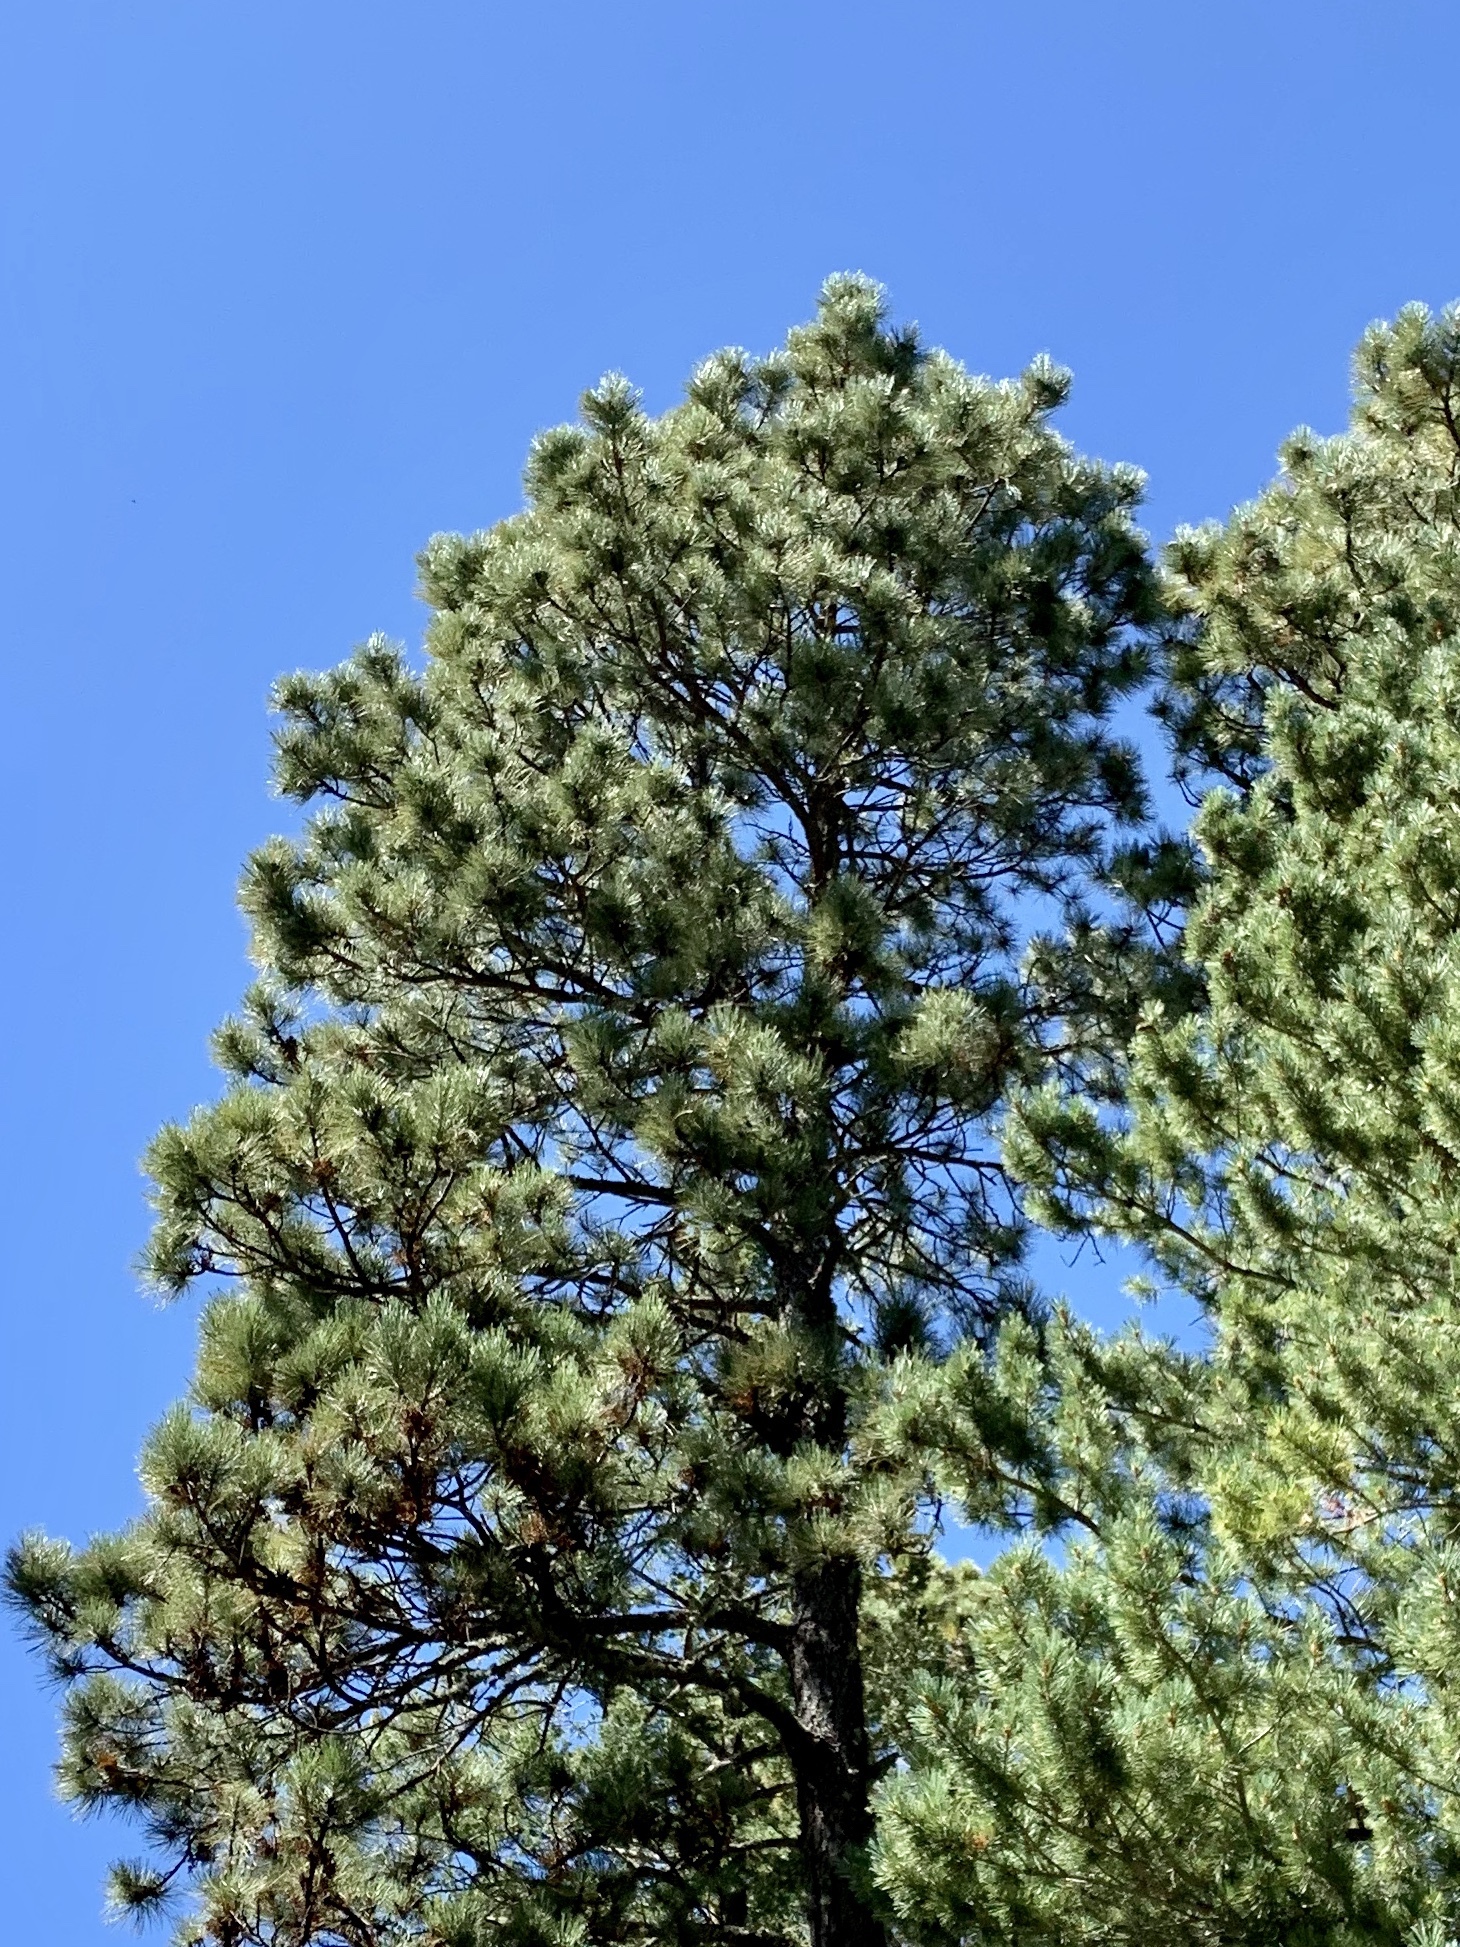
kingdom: Plantae
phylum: Tracheophyta
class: Pinopsida
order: Pinales
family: Pinaceae
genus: Pinus
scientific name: Pinus ponderosa
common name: Western yellow-pine
